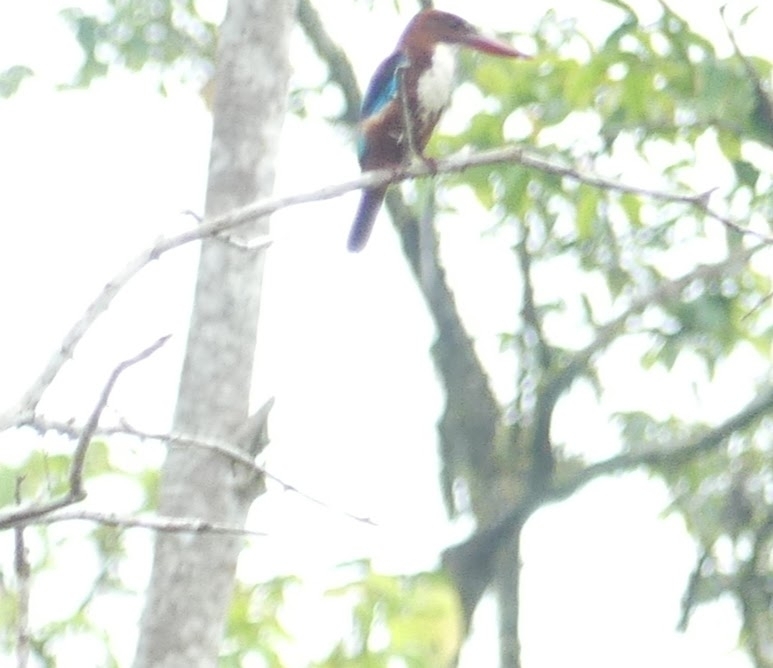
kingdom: Animalia
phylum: Chordata
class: Aves
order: Coraciiformes
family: Alcedinidae
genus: Halcyon
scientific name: Halcyon smyrnensis
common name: White-throated kingfisher
